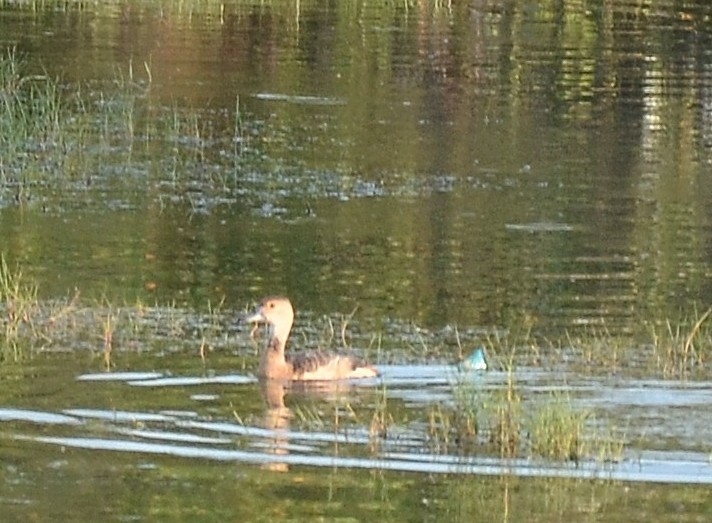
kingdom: Animalia
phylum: Chordata
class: Aves
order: Anseriformes
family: Anatidae
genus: Dendrocygna
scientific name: Dendrocygna javanica
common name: Lesser whistling-duck
